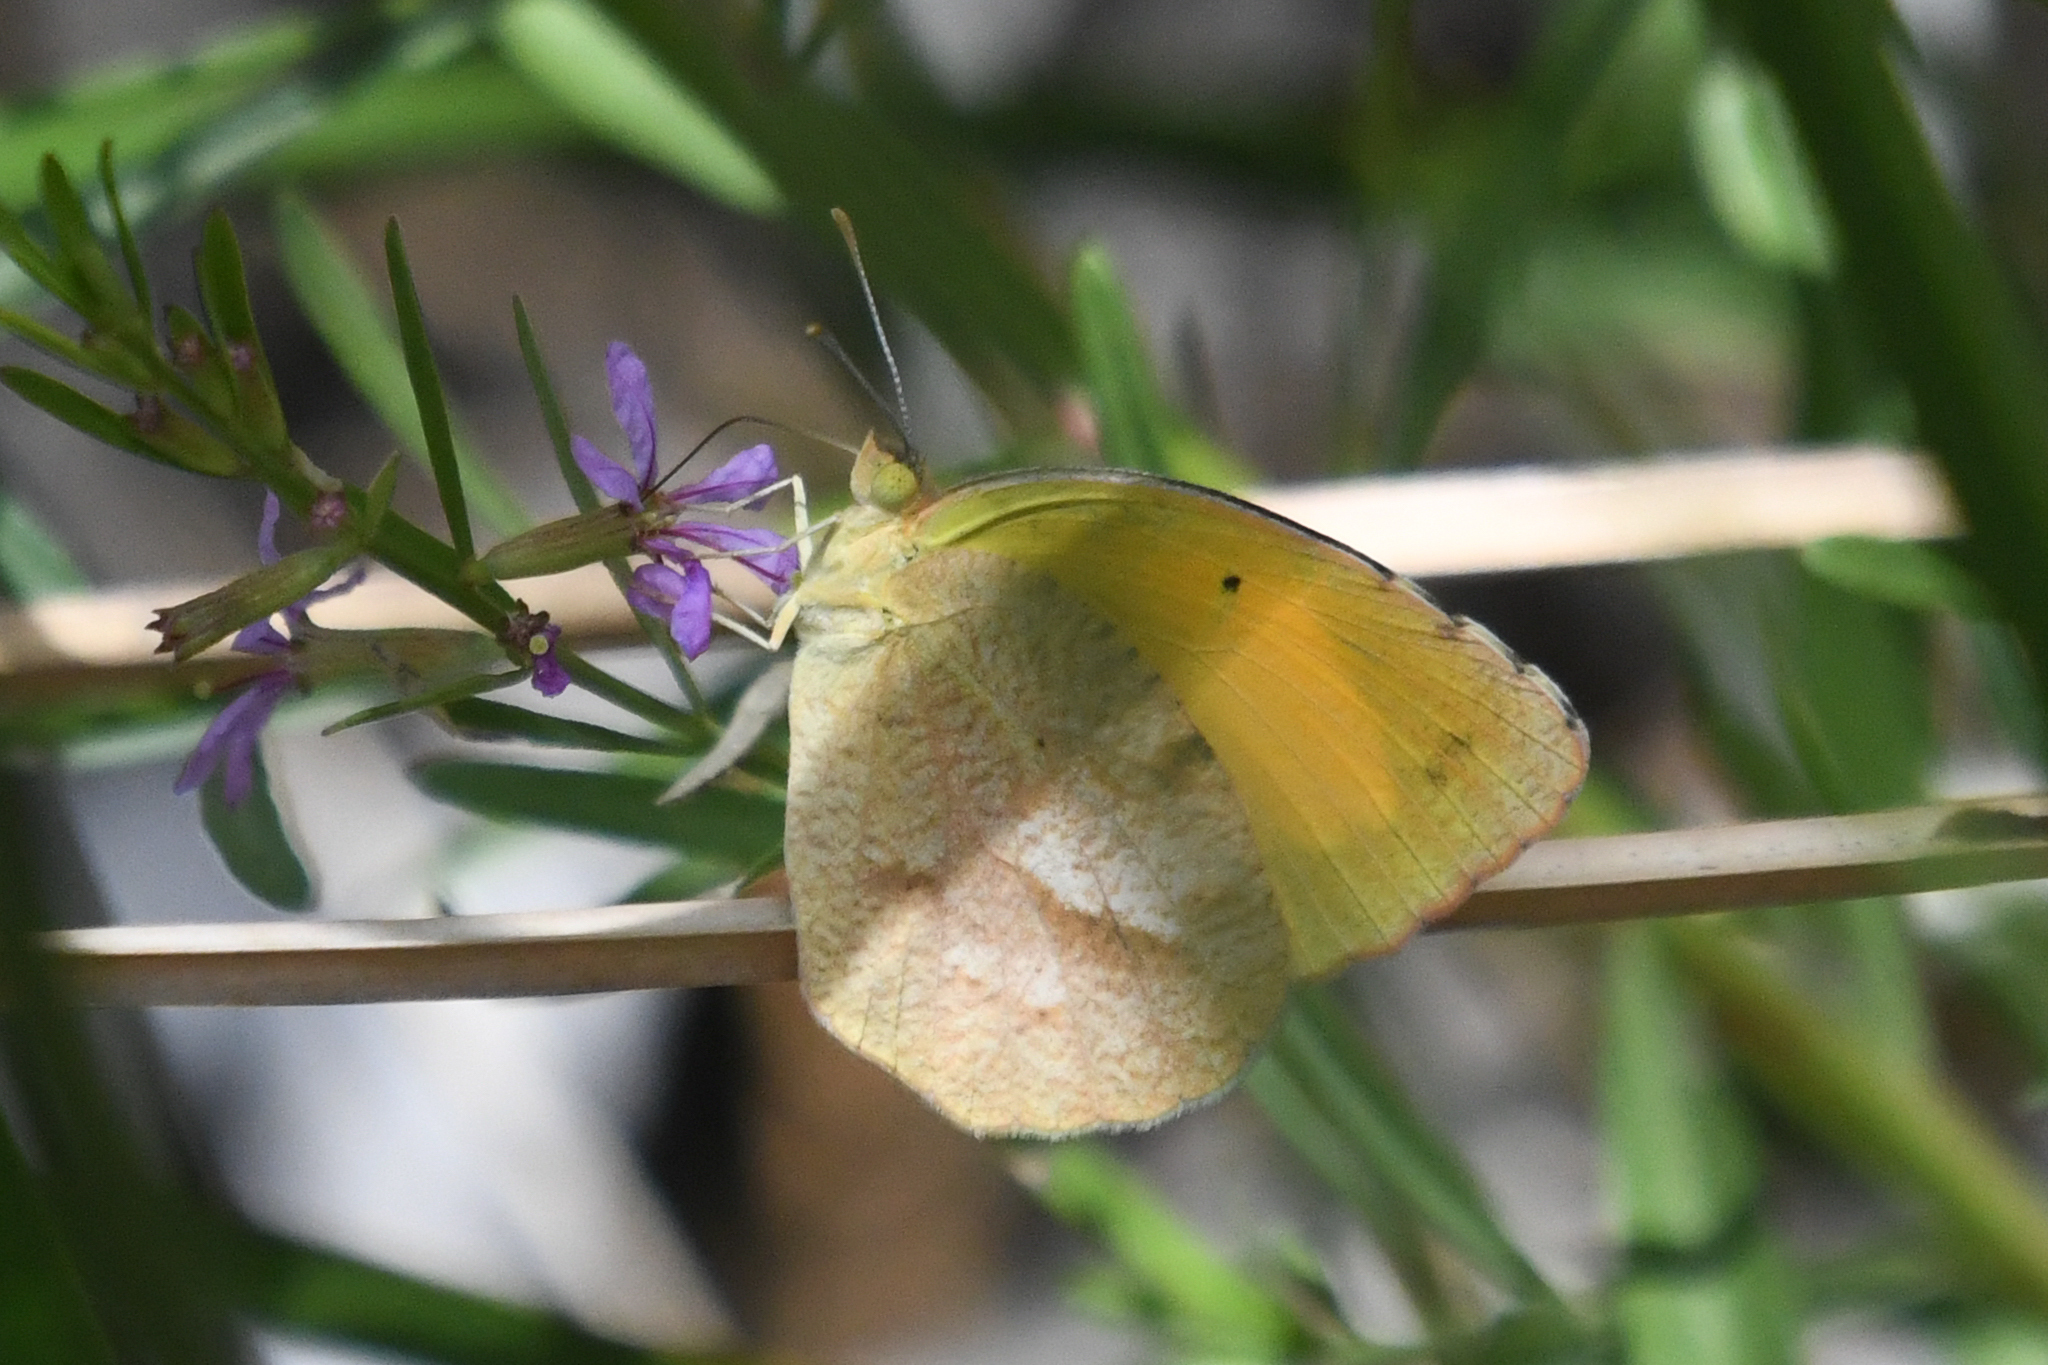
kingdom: Animalia
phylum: Arthropoda
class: Insecta
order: Lepidoptera
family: Pieridae
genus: Abaeis
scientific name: Abaeis nicippe
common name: Sleepy orange
